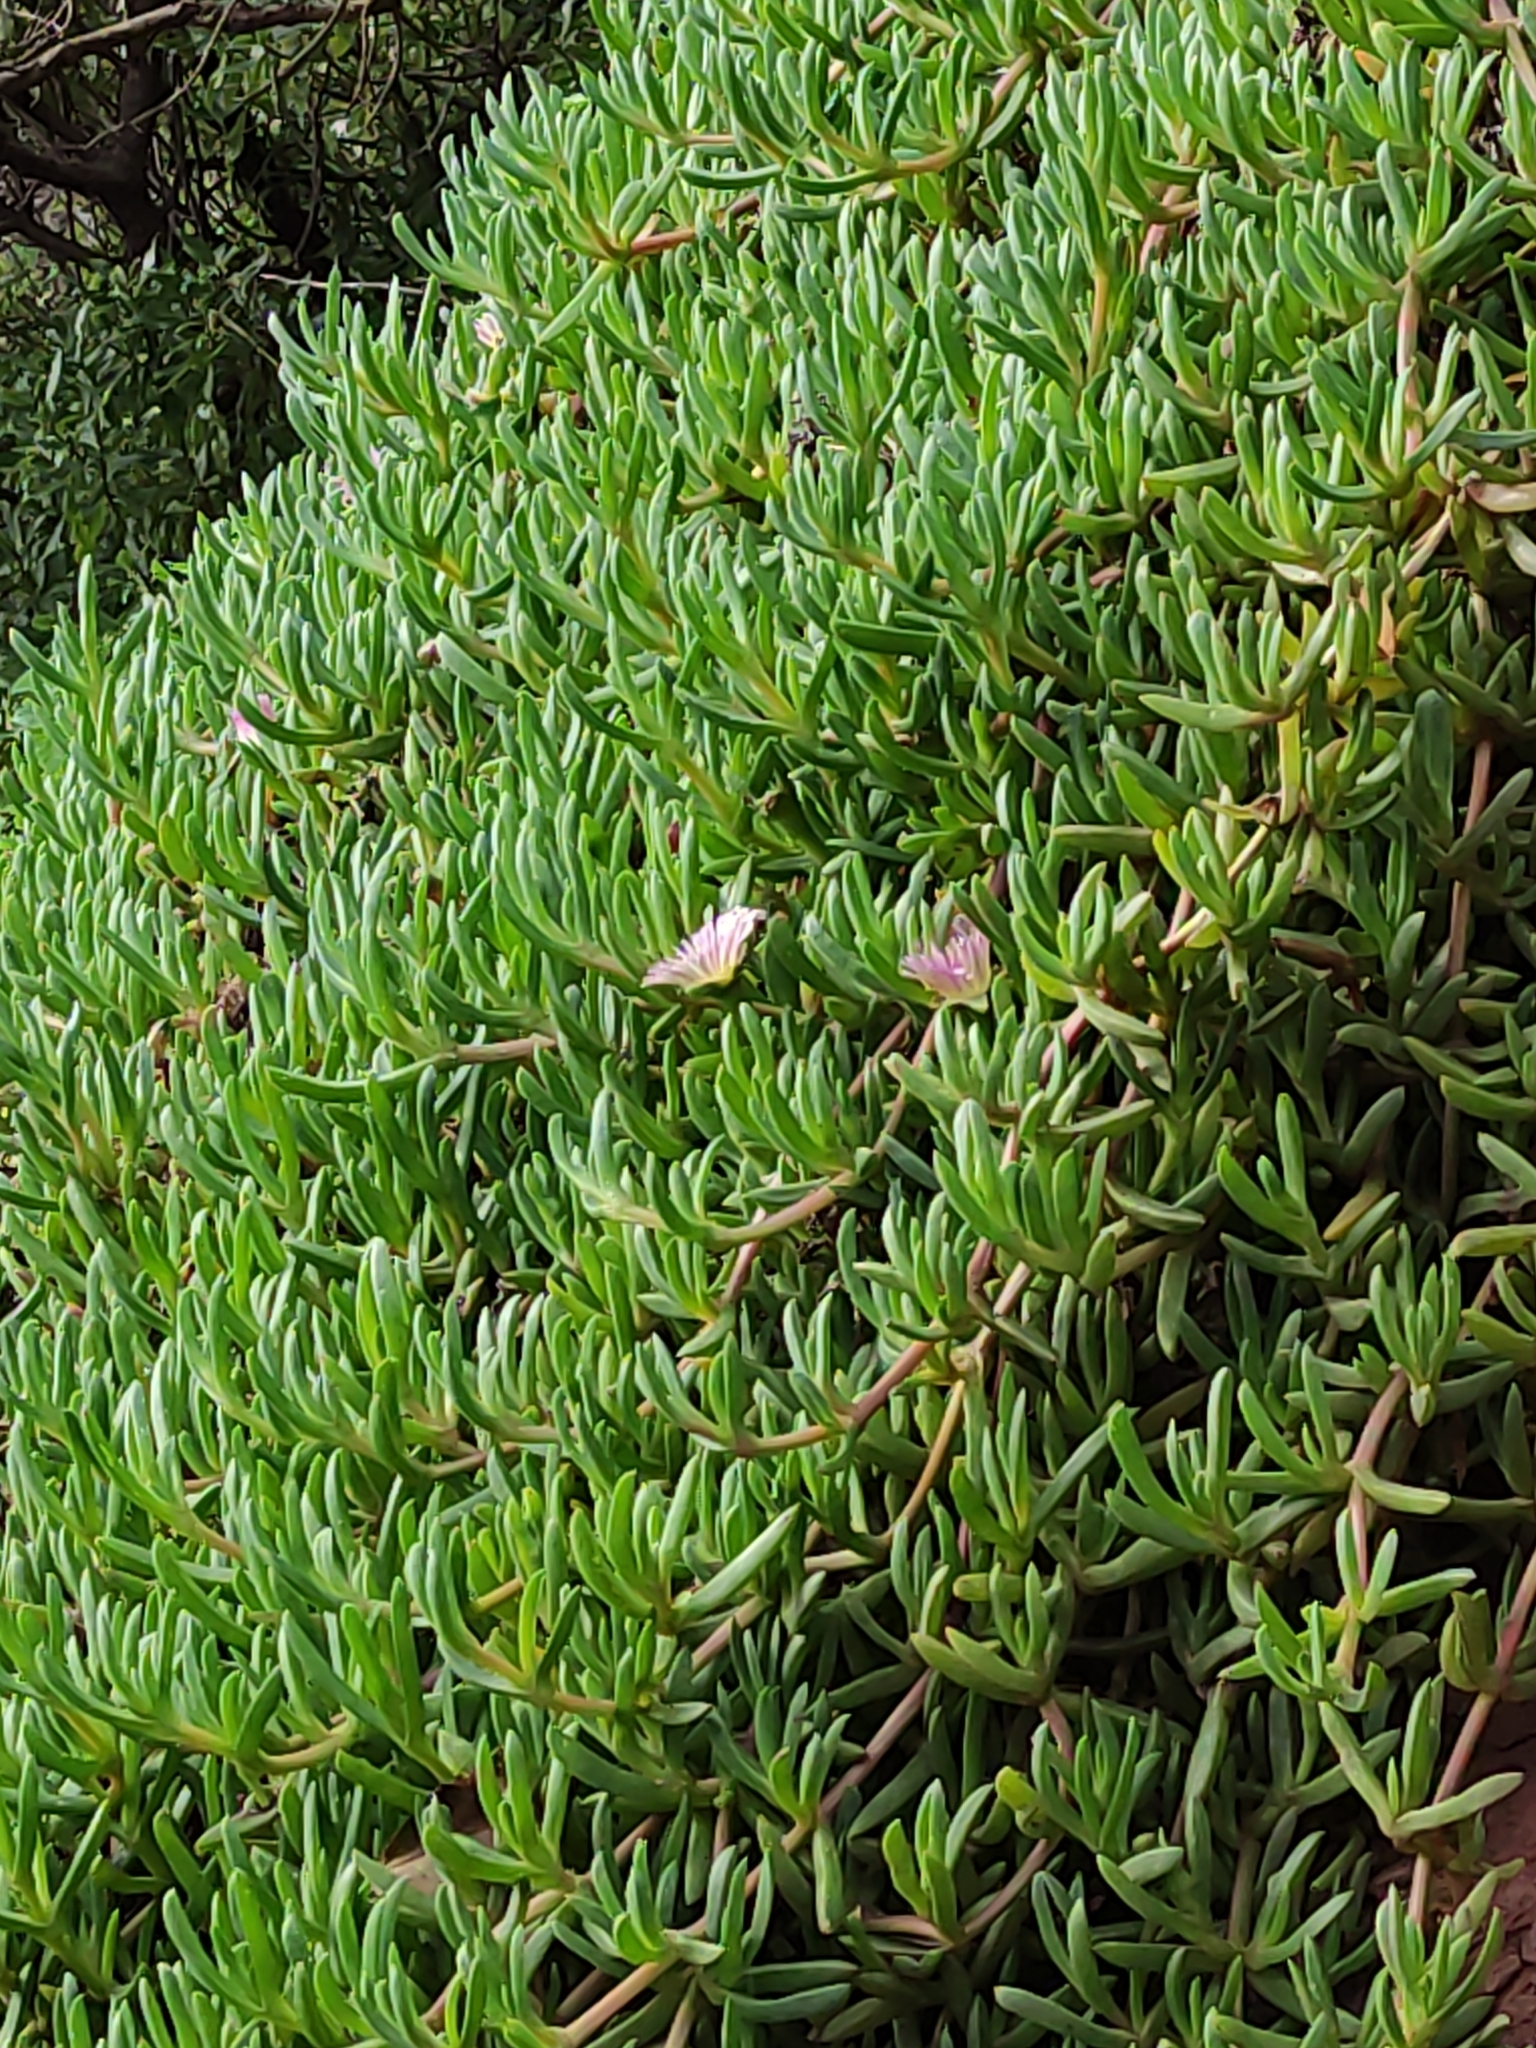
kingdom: Plantae
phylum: Tracheophyta
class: Magnoliopsida
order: Caryophyllales
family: Aizoaceae
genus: Disphyma
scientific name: Disphyma australe
